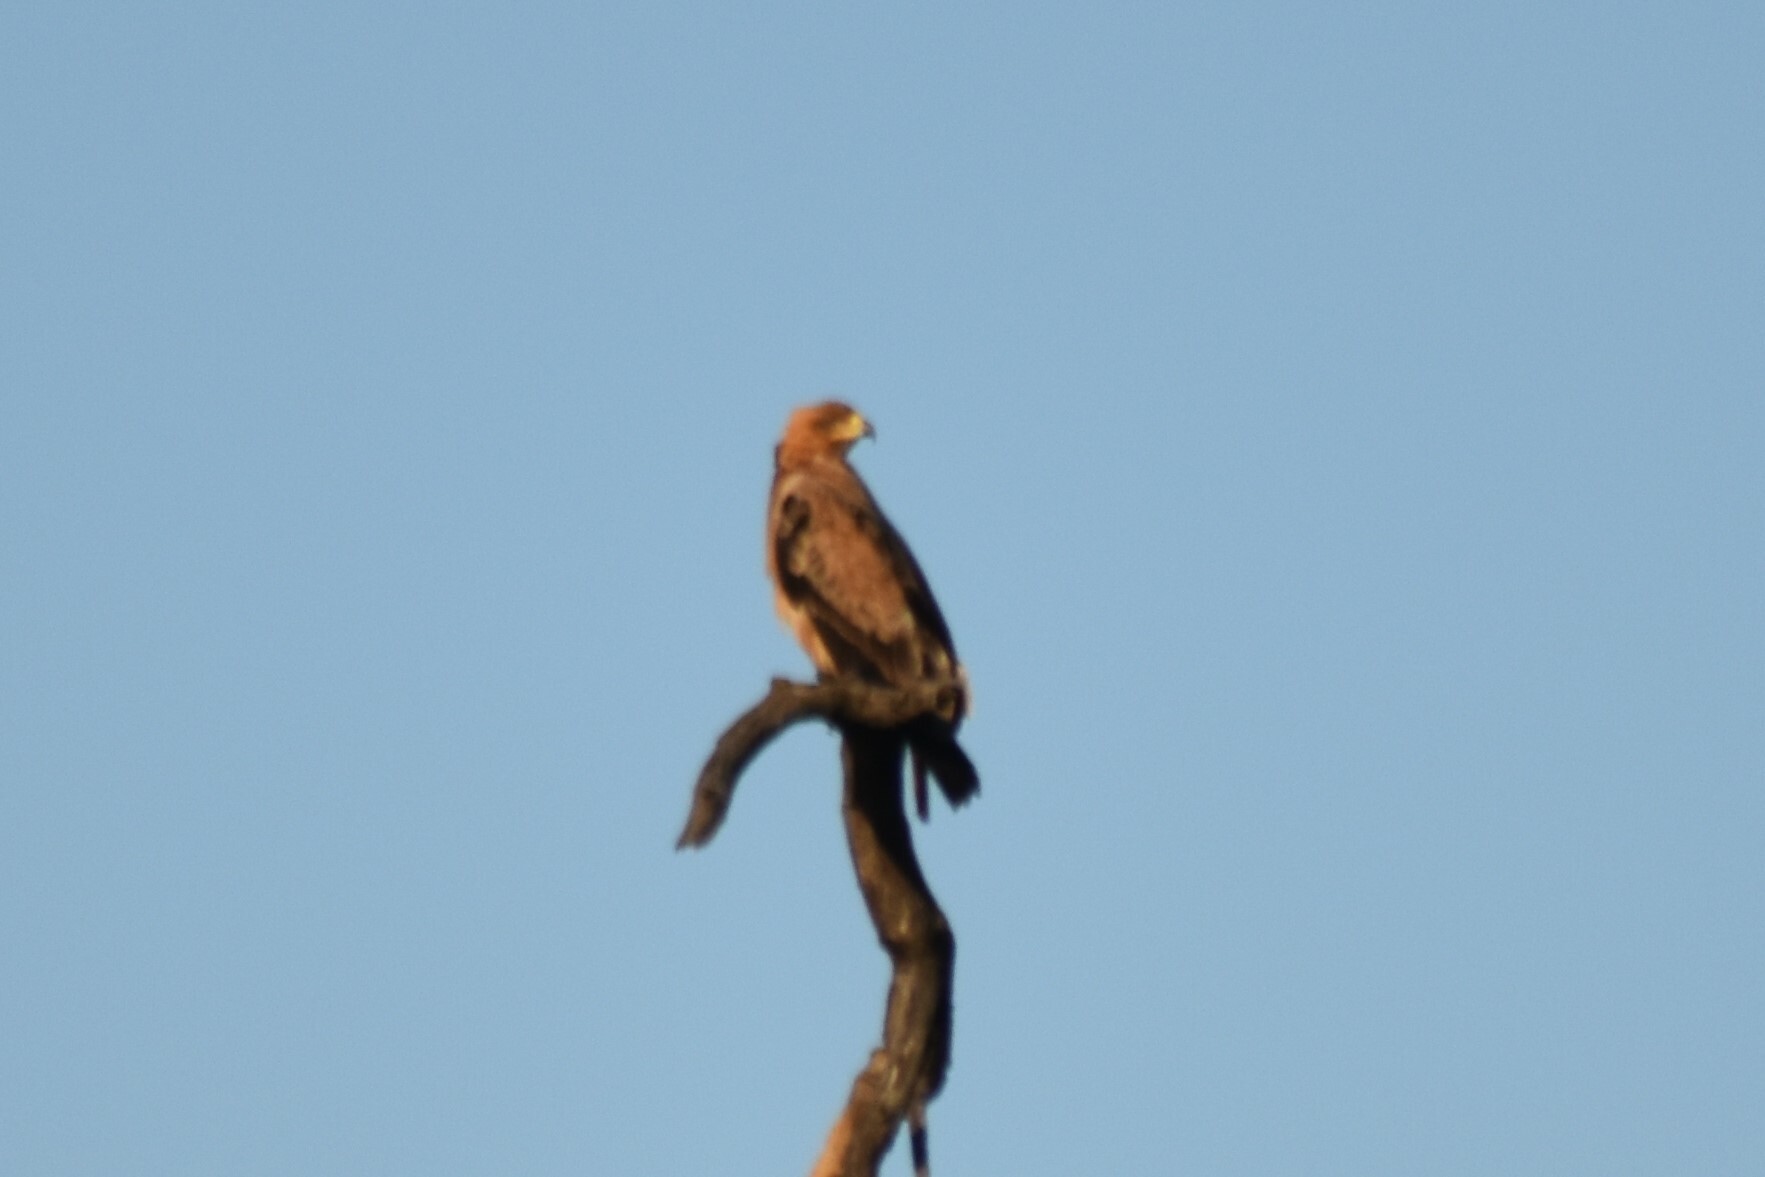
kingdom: Animalia
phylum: Chordata
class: Aves
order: Accipitriformes
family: Accipitridae
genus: Aquila
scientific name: Aquila rapax
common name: Tawny eagle
